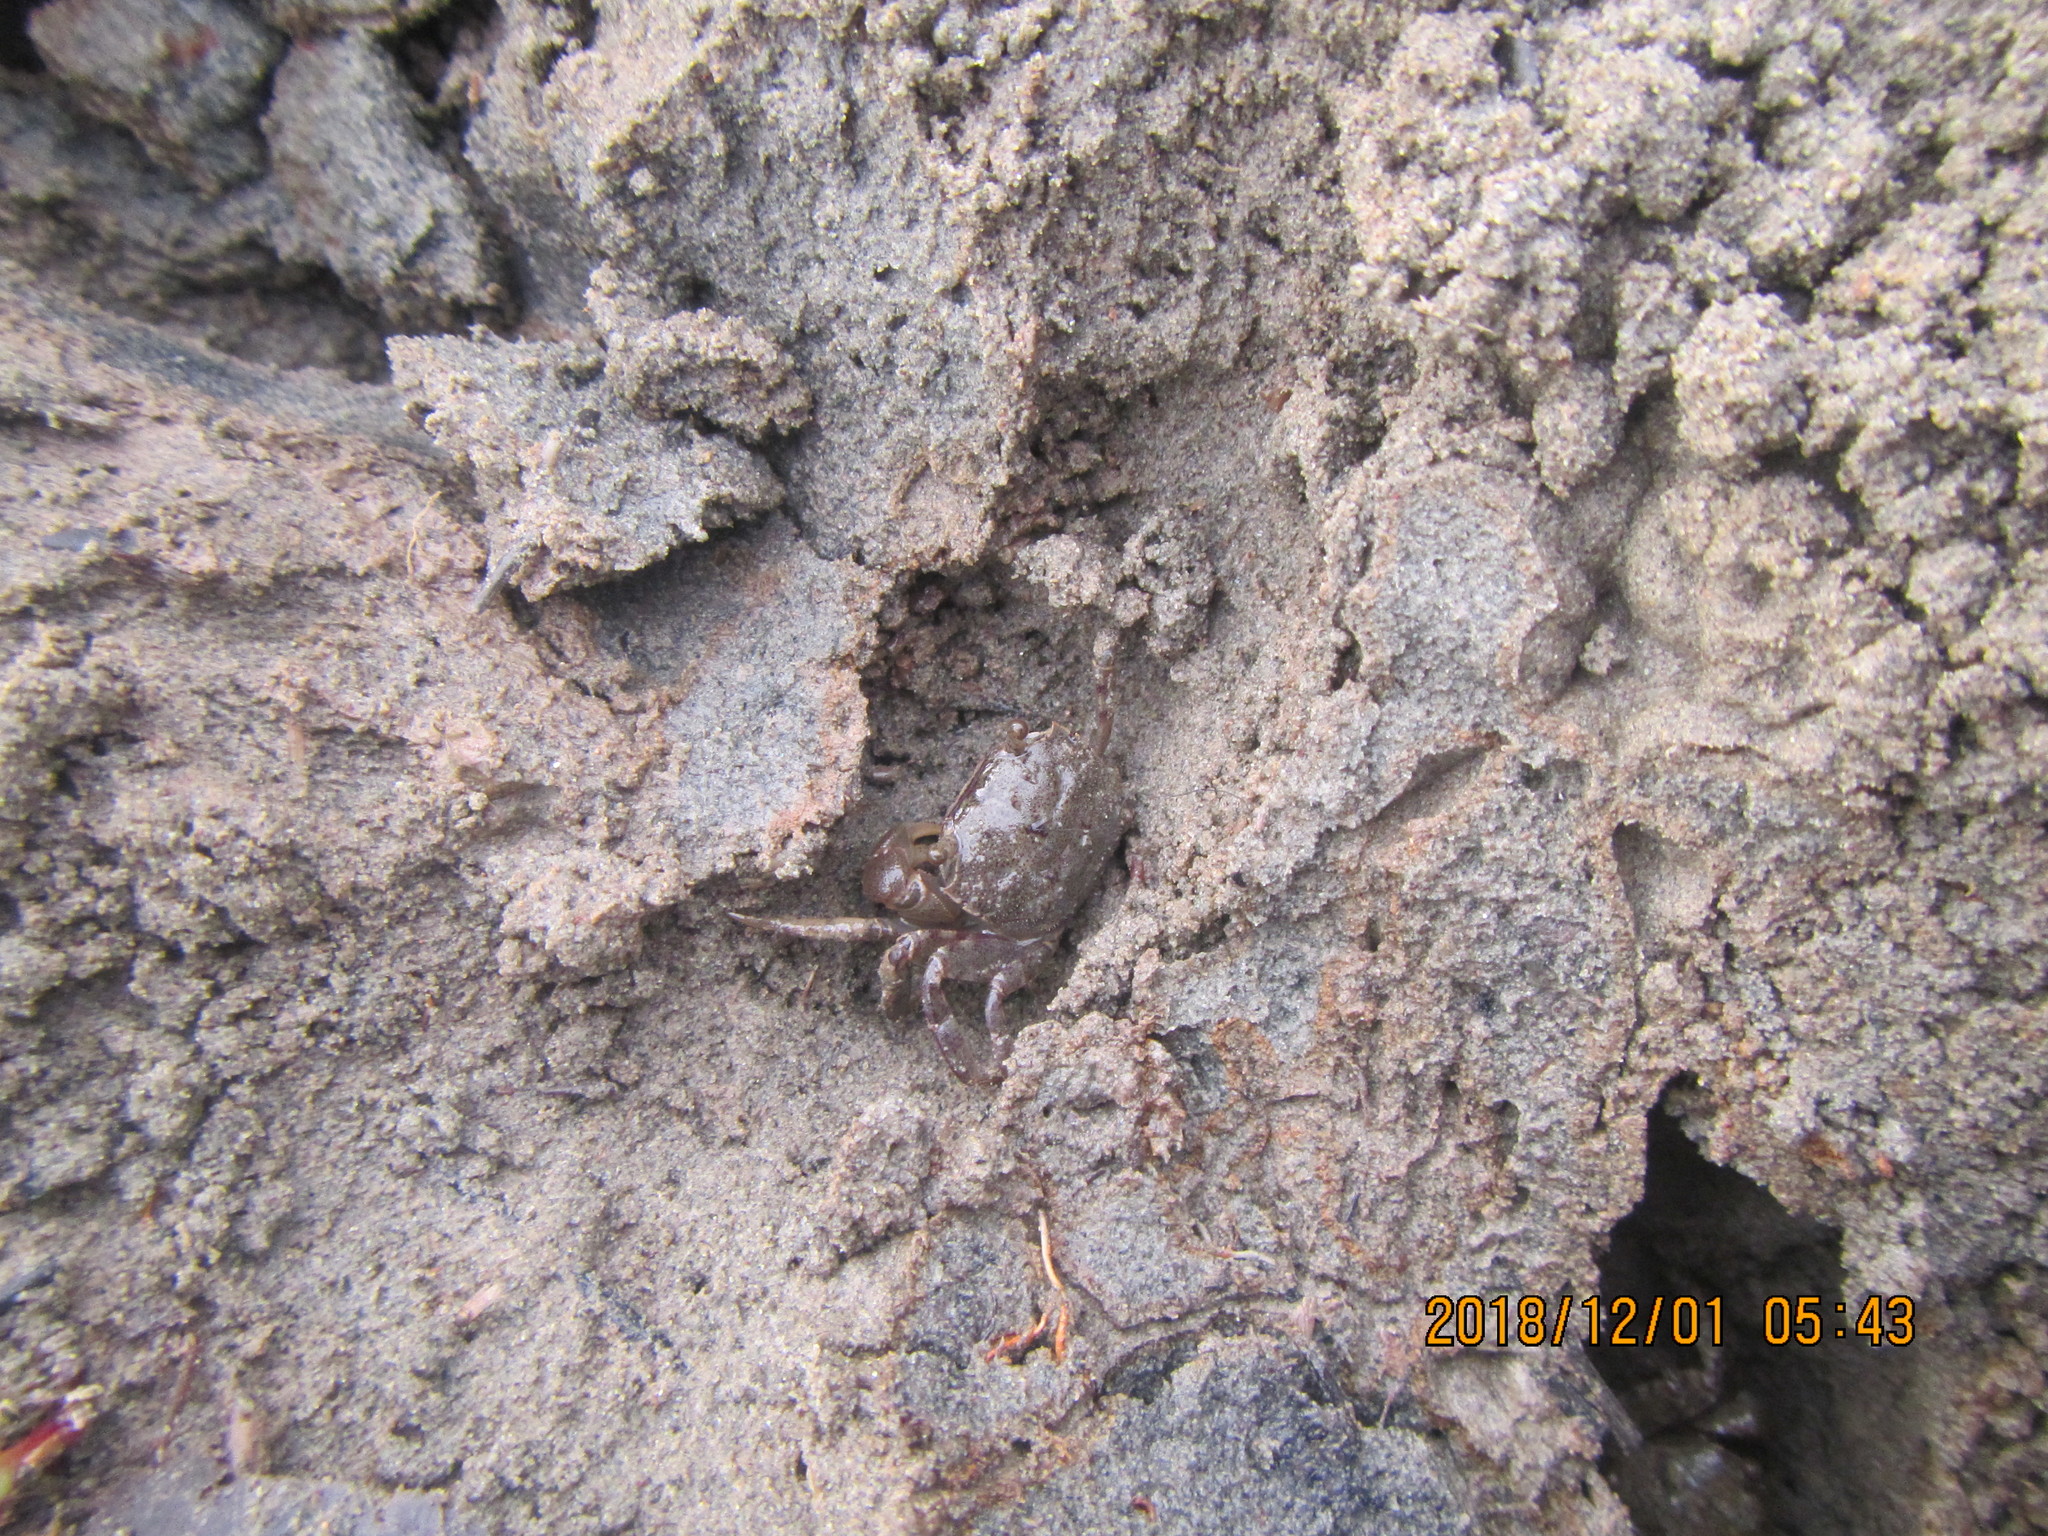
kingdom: Animalia
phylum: Arthropoda
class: Malacostraca
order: Decapoda
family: Varunidae
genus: Austrohelice
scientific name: Austrohelice crassa
